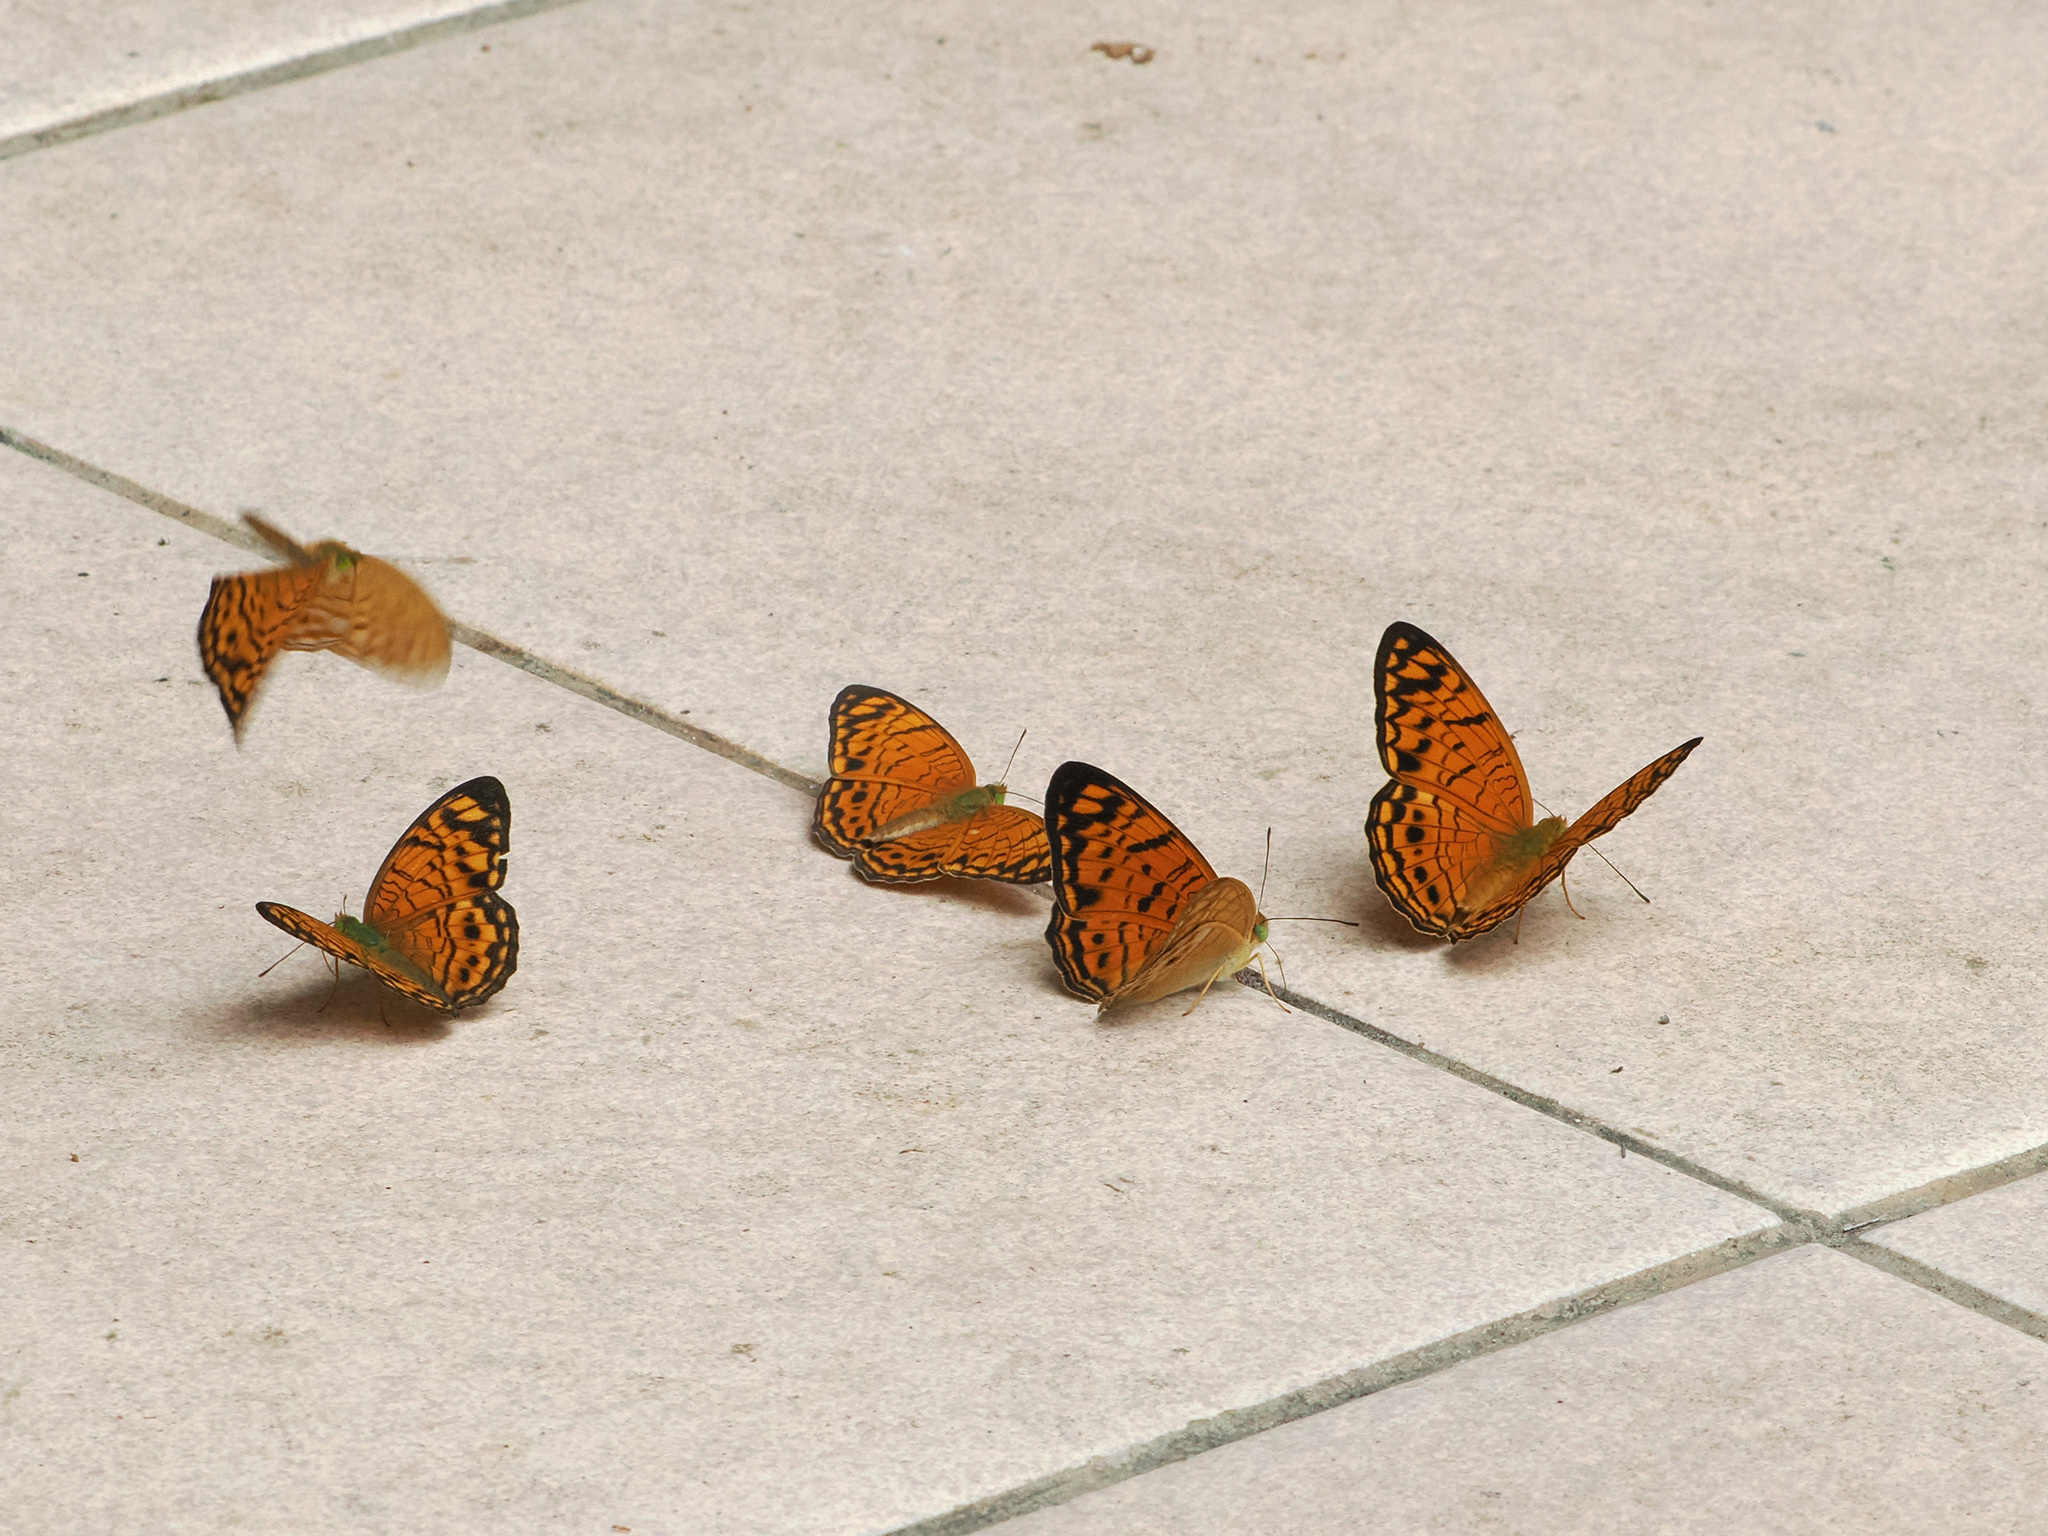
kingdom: Animalia
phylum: Arthropoda
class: Insecta
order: Lepidoptera
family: Nymphalidae
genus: Phalanta
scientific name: Phalanta alcippe
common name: Small leopard
